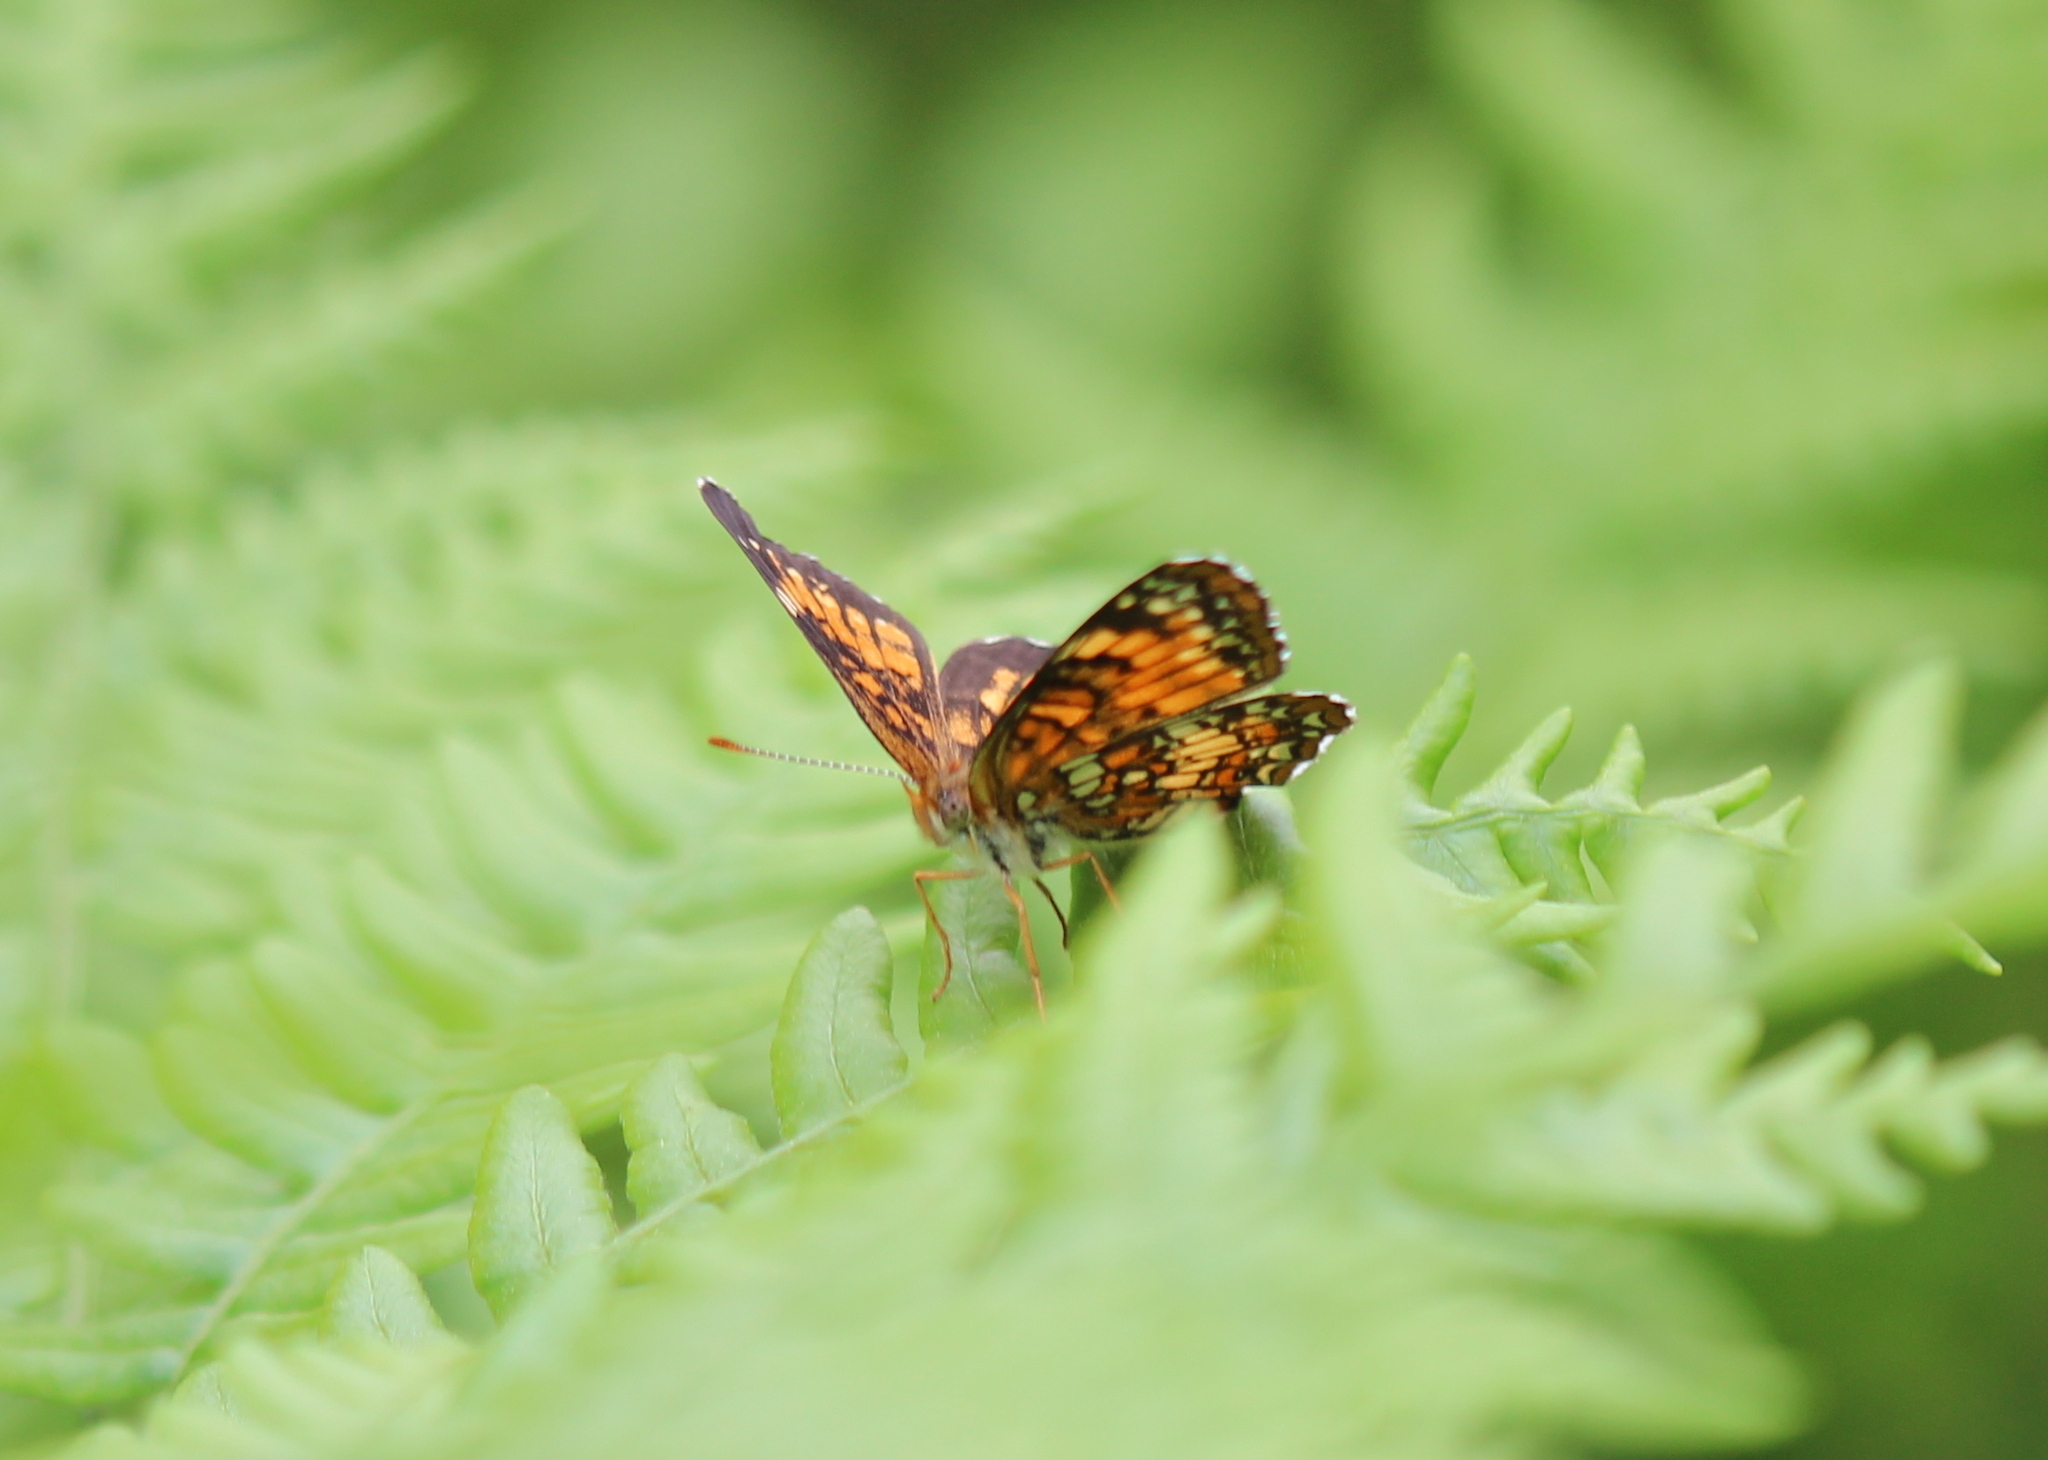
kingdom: Animalia
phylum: Arthropoda
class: Insecta
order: Lepidoptera
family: Nymphalidae
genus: Chlosyne
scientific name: Chlosyne harrisii
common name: Harris's checkerspot
